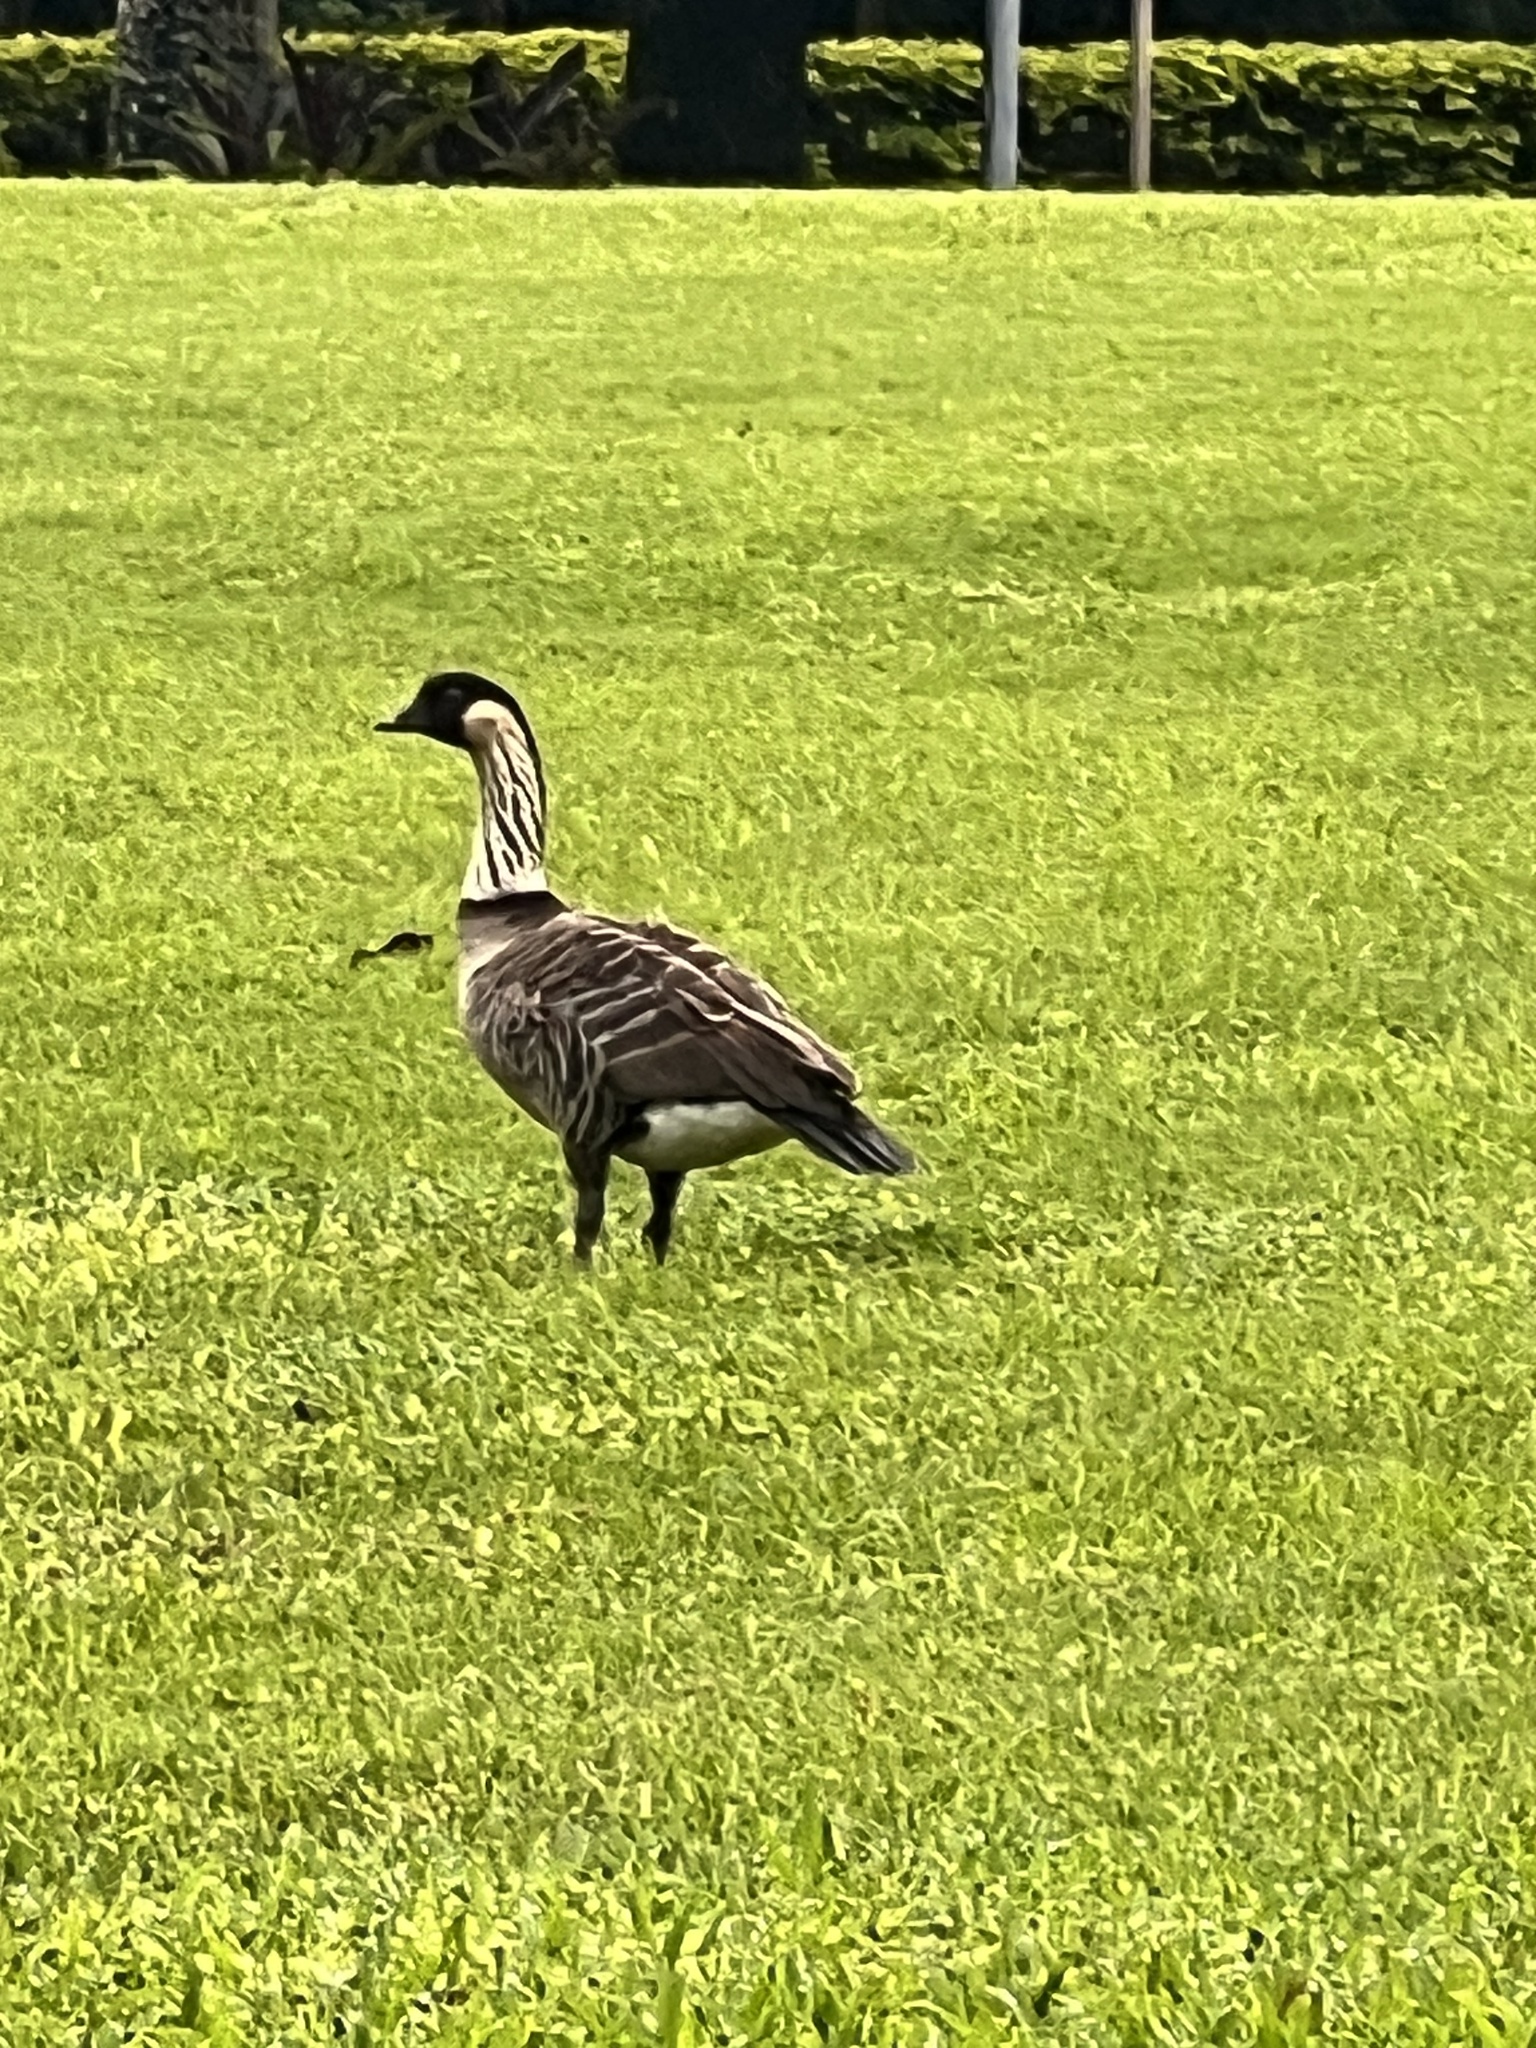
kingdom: Animalia
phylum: Chordata
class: Aves
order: Anseriformes
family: Anatidae
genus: Branta
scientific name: Branta sandvicensis
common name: Nene
